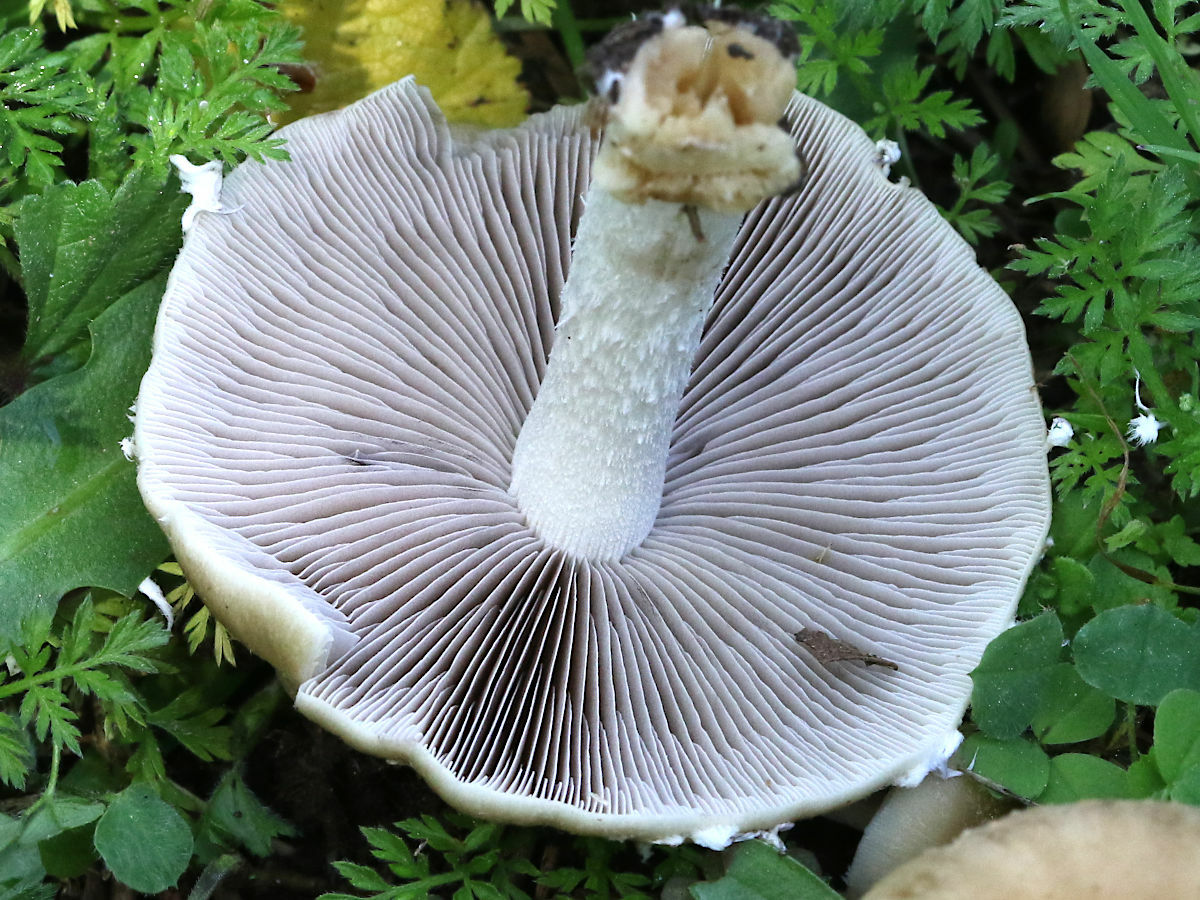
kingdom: Fungi
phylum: Basidiomycota
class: Agaricomycetes
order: Agaricales
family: Psathyrellaceae
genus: Candolleomyces
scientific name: Candolleomyces candolleanus
